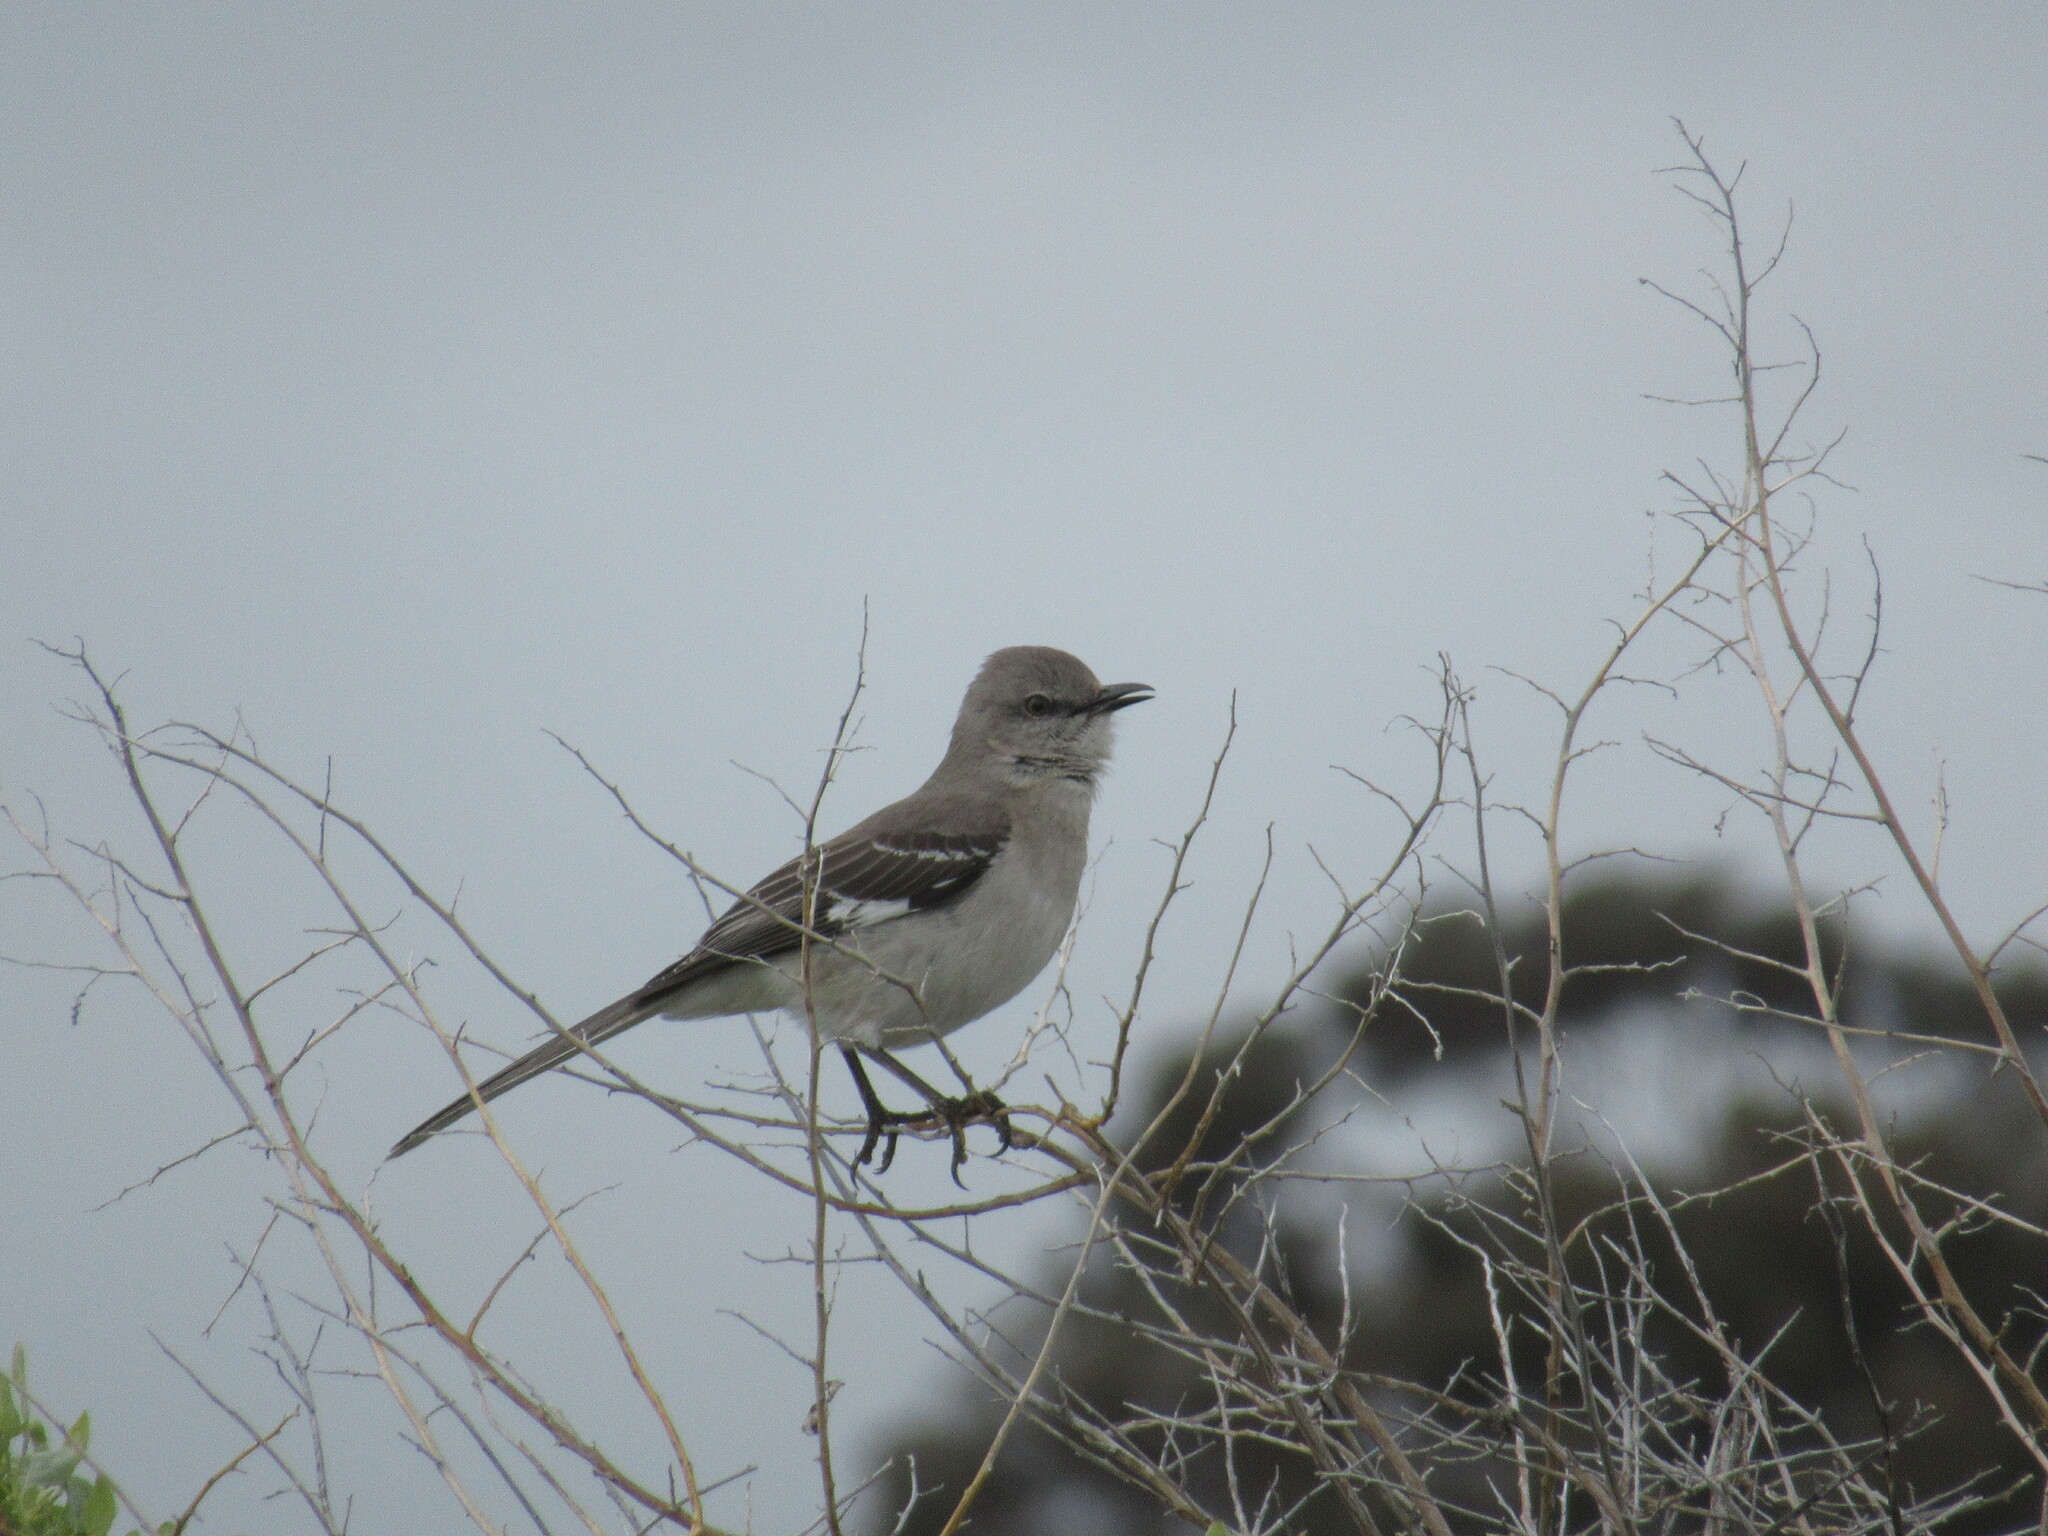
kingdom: Animalia
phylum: Chordata
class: Aves
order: Passeriformes
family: Mimidae
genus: Mimus
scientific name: Mimus polyglottos
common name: Northern mockingbird
